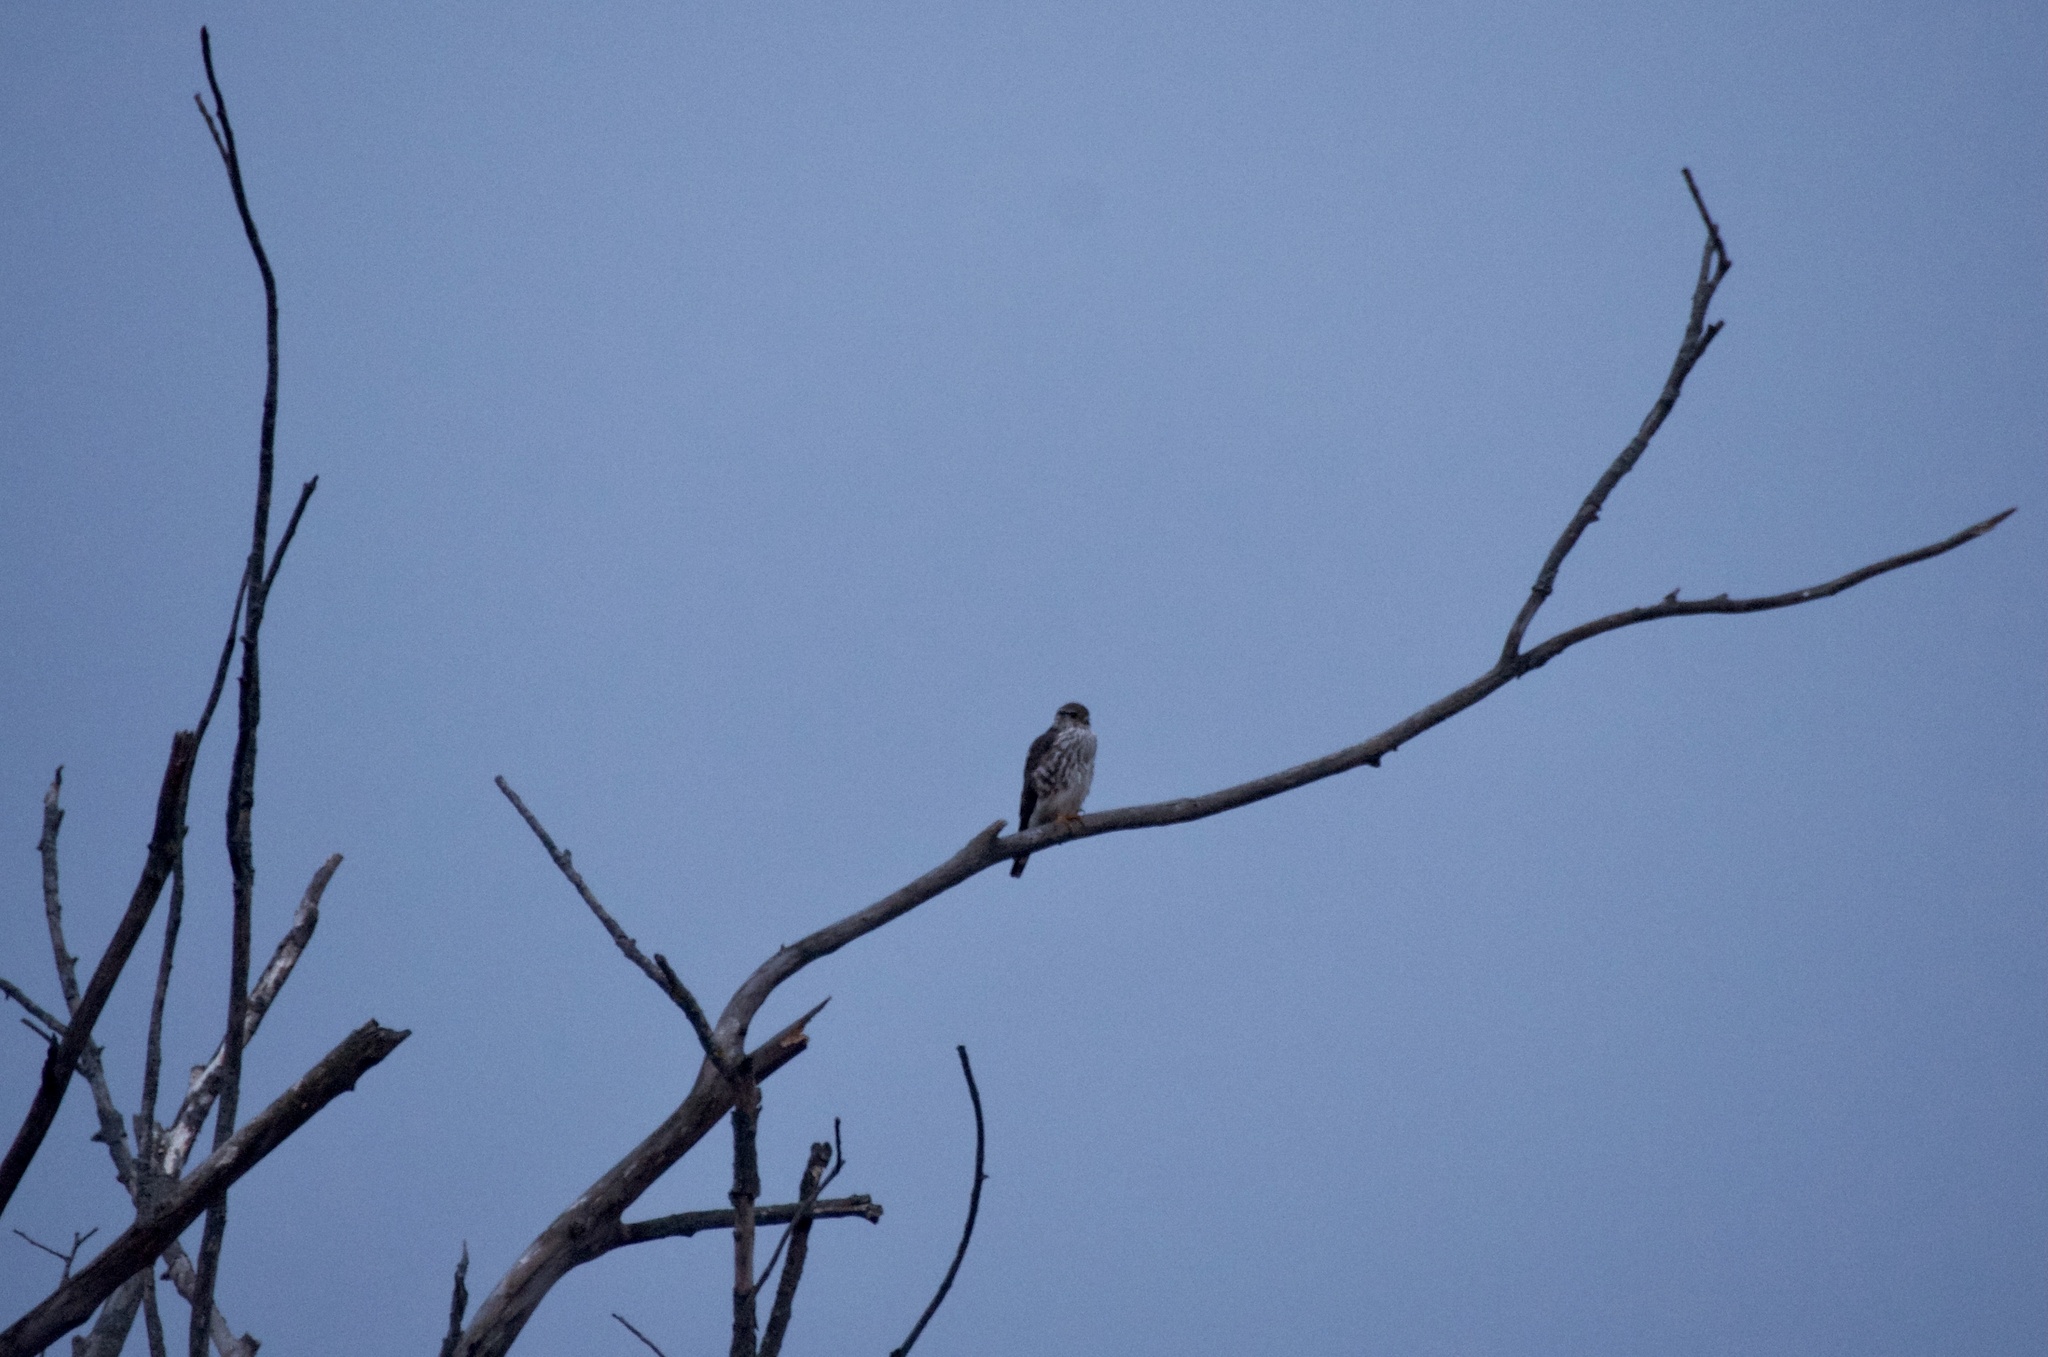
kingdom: Animalia
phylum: Chordata
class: Aves
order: Falconiformes
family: Falconidae
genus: Falco
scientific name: Falco columbarius
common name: Merlin
